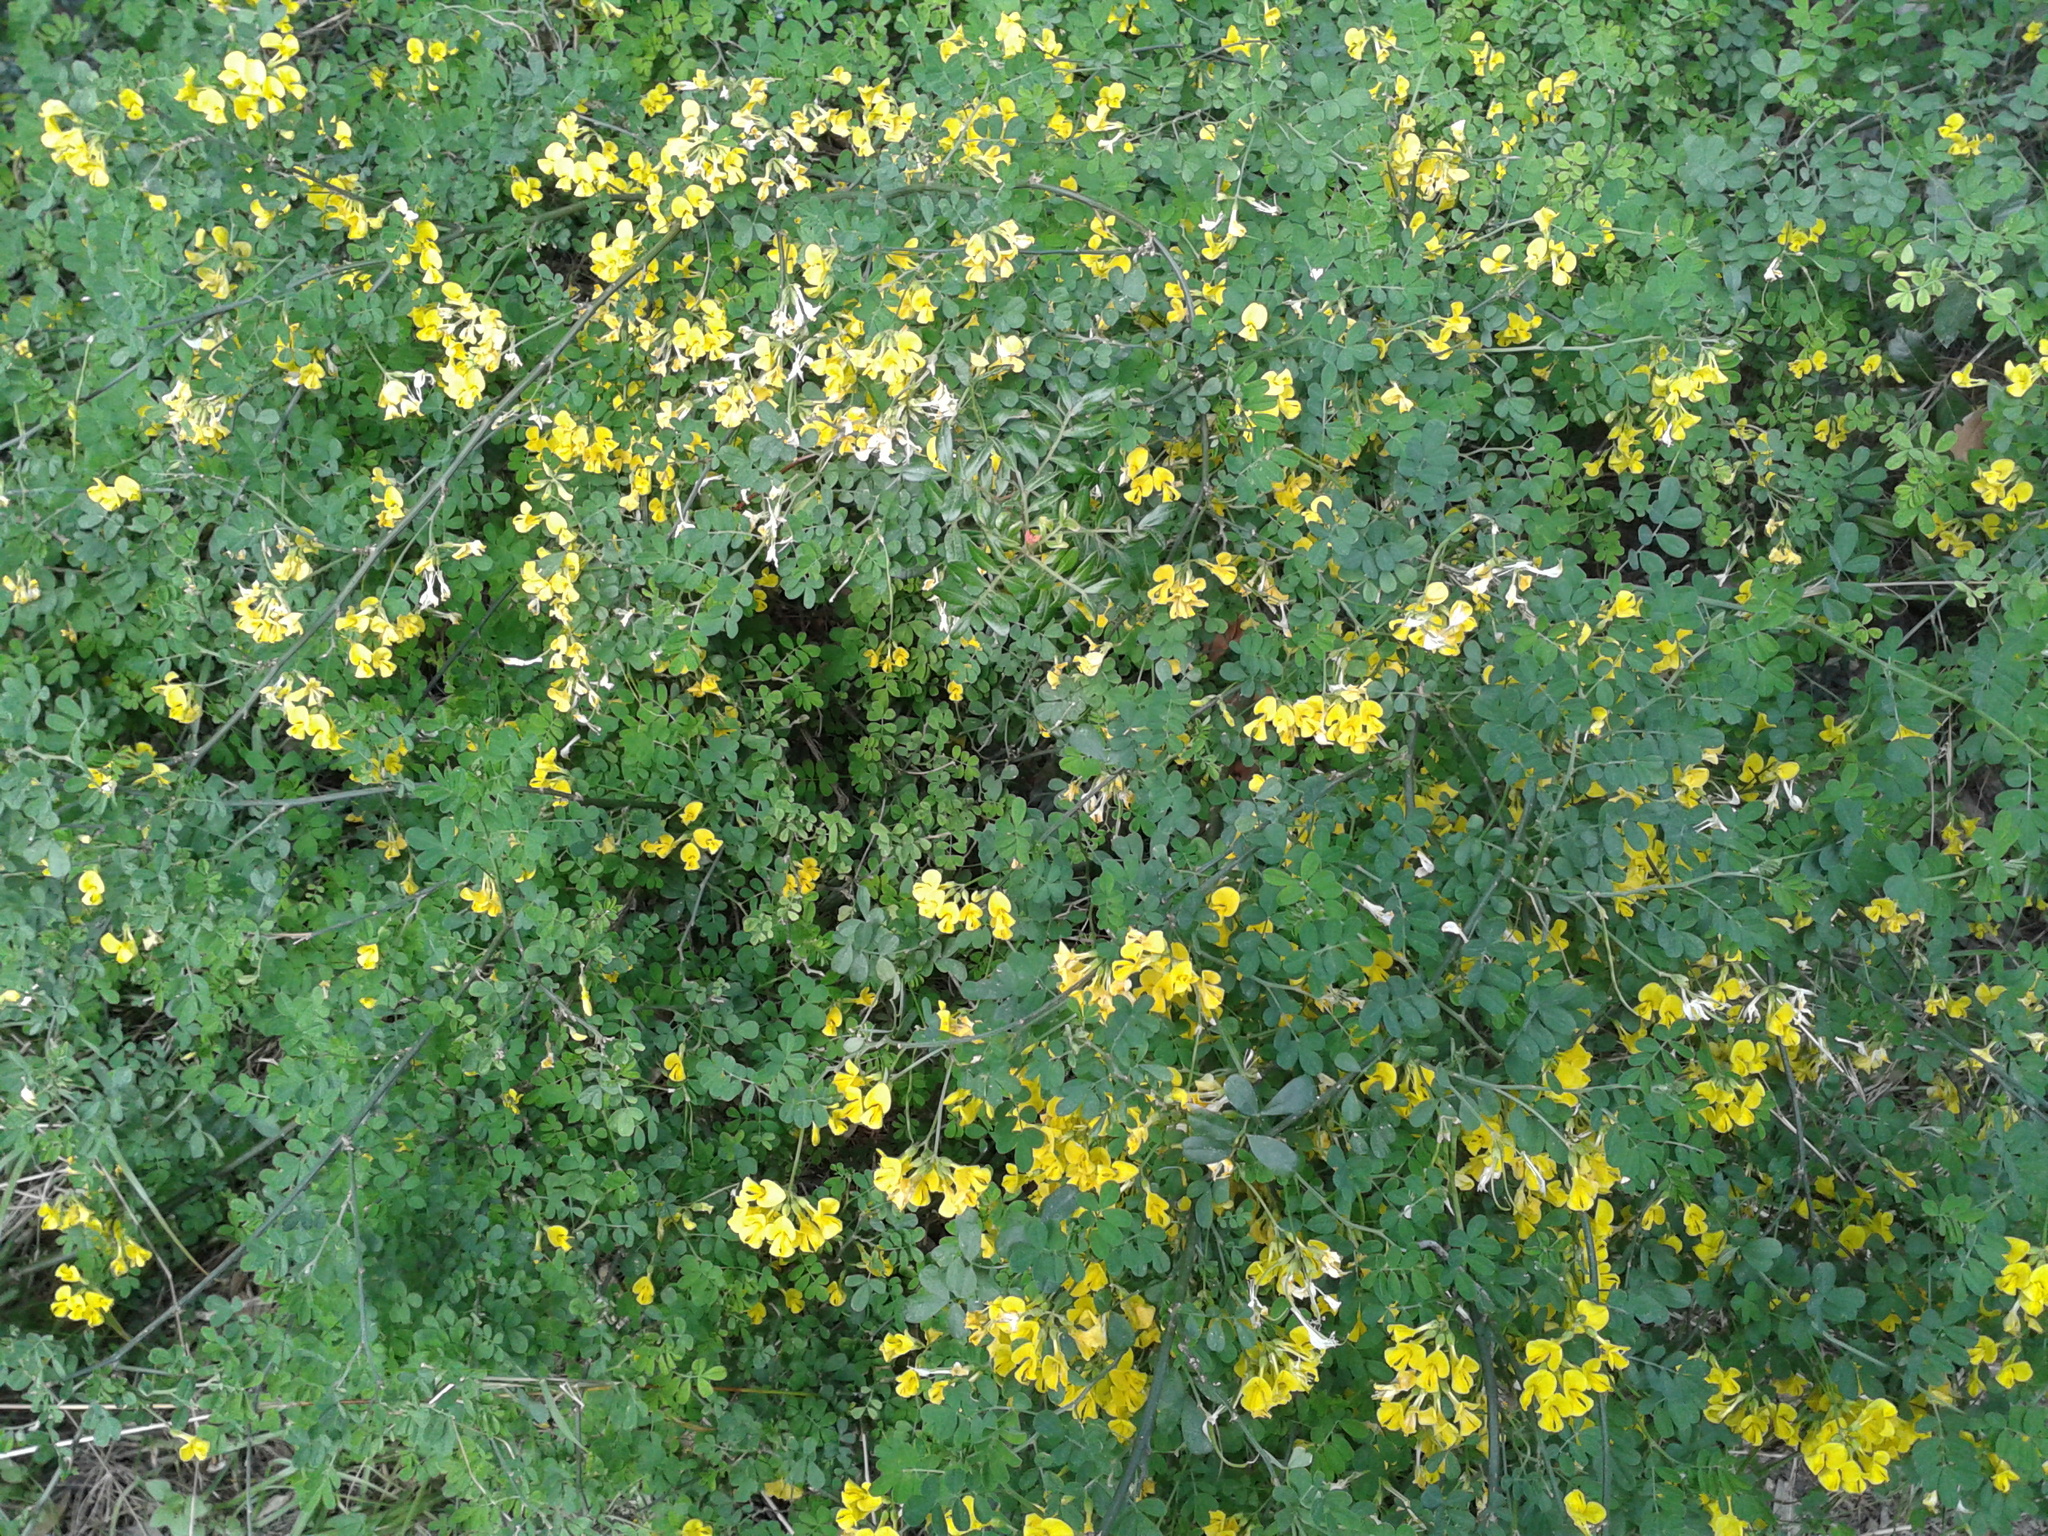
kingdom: Plantae
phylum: Tracheophyta
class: Magnoliopsida
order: Fabales
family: Fabaceae
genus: Hippocrepis
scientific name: Hippocrepis emerus
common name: Scorpion senna
